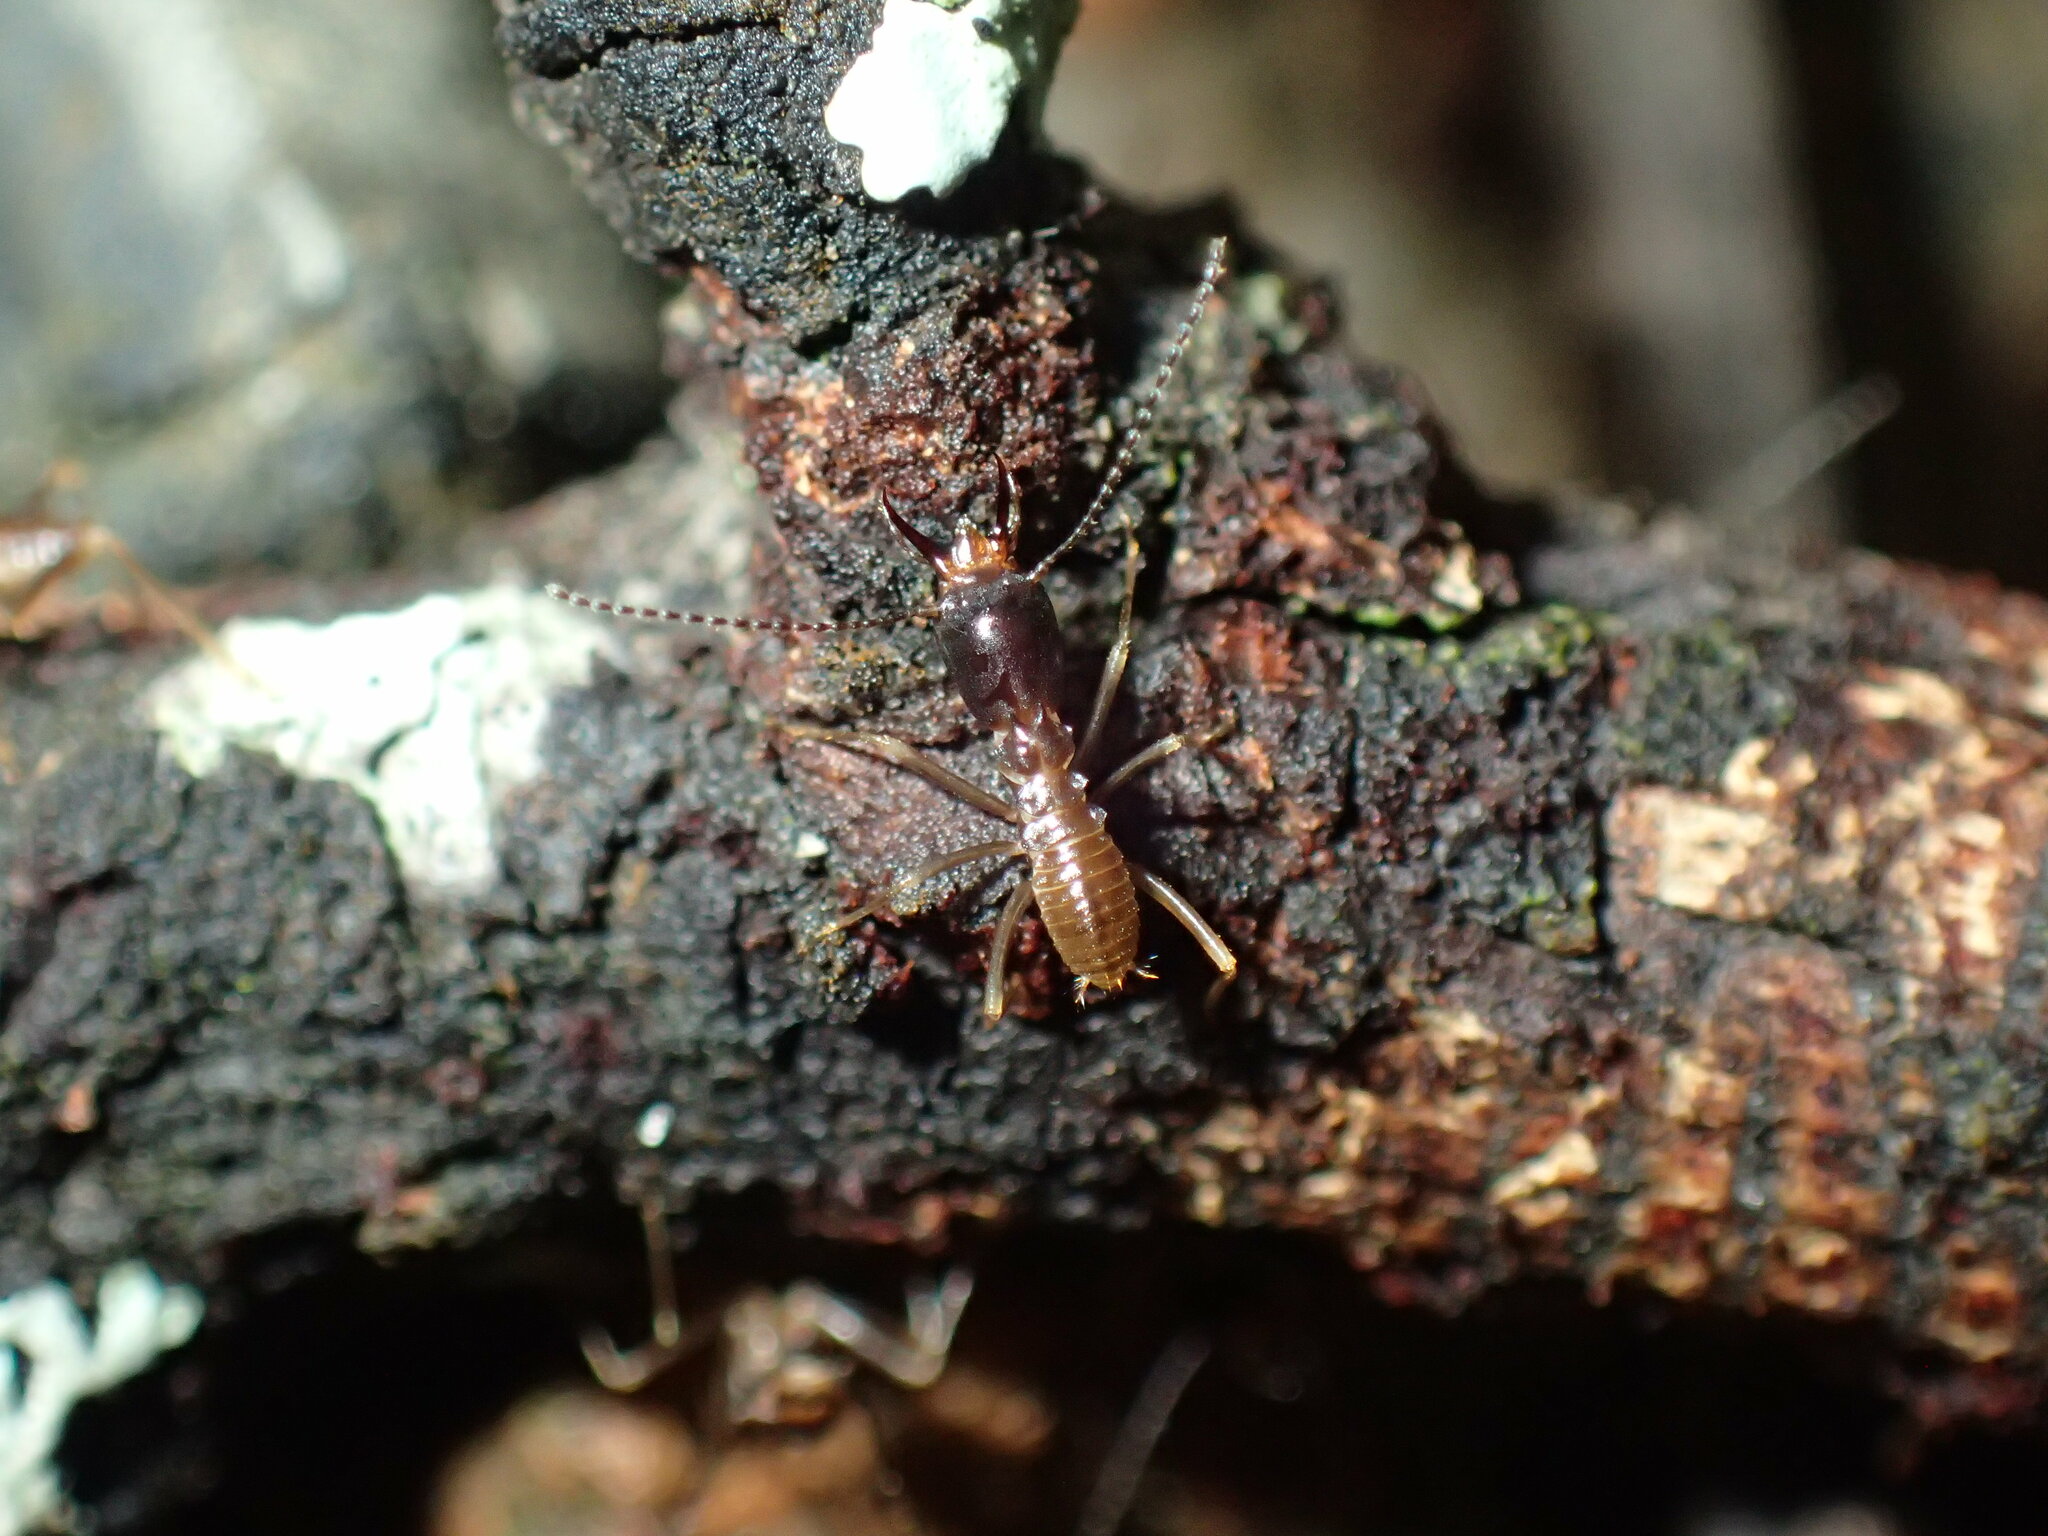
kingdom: Animalia
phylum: Arthropoda
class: Insecta
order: Blattodea
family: Termitidae
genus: Pseudacanthotermes
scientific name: Pseudacanthotermes spiniger
